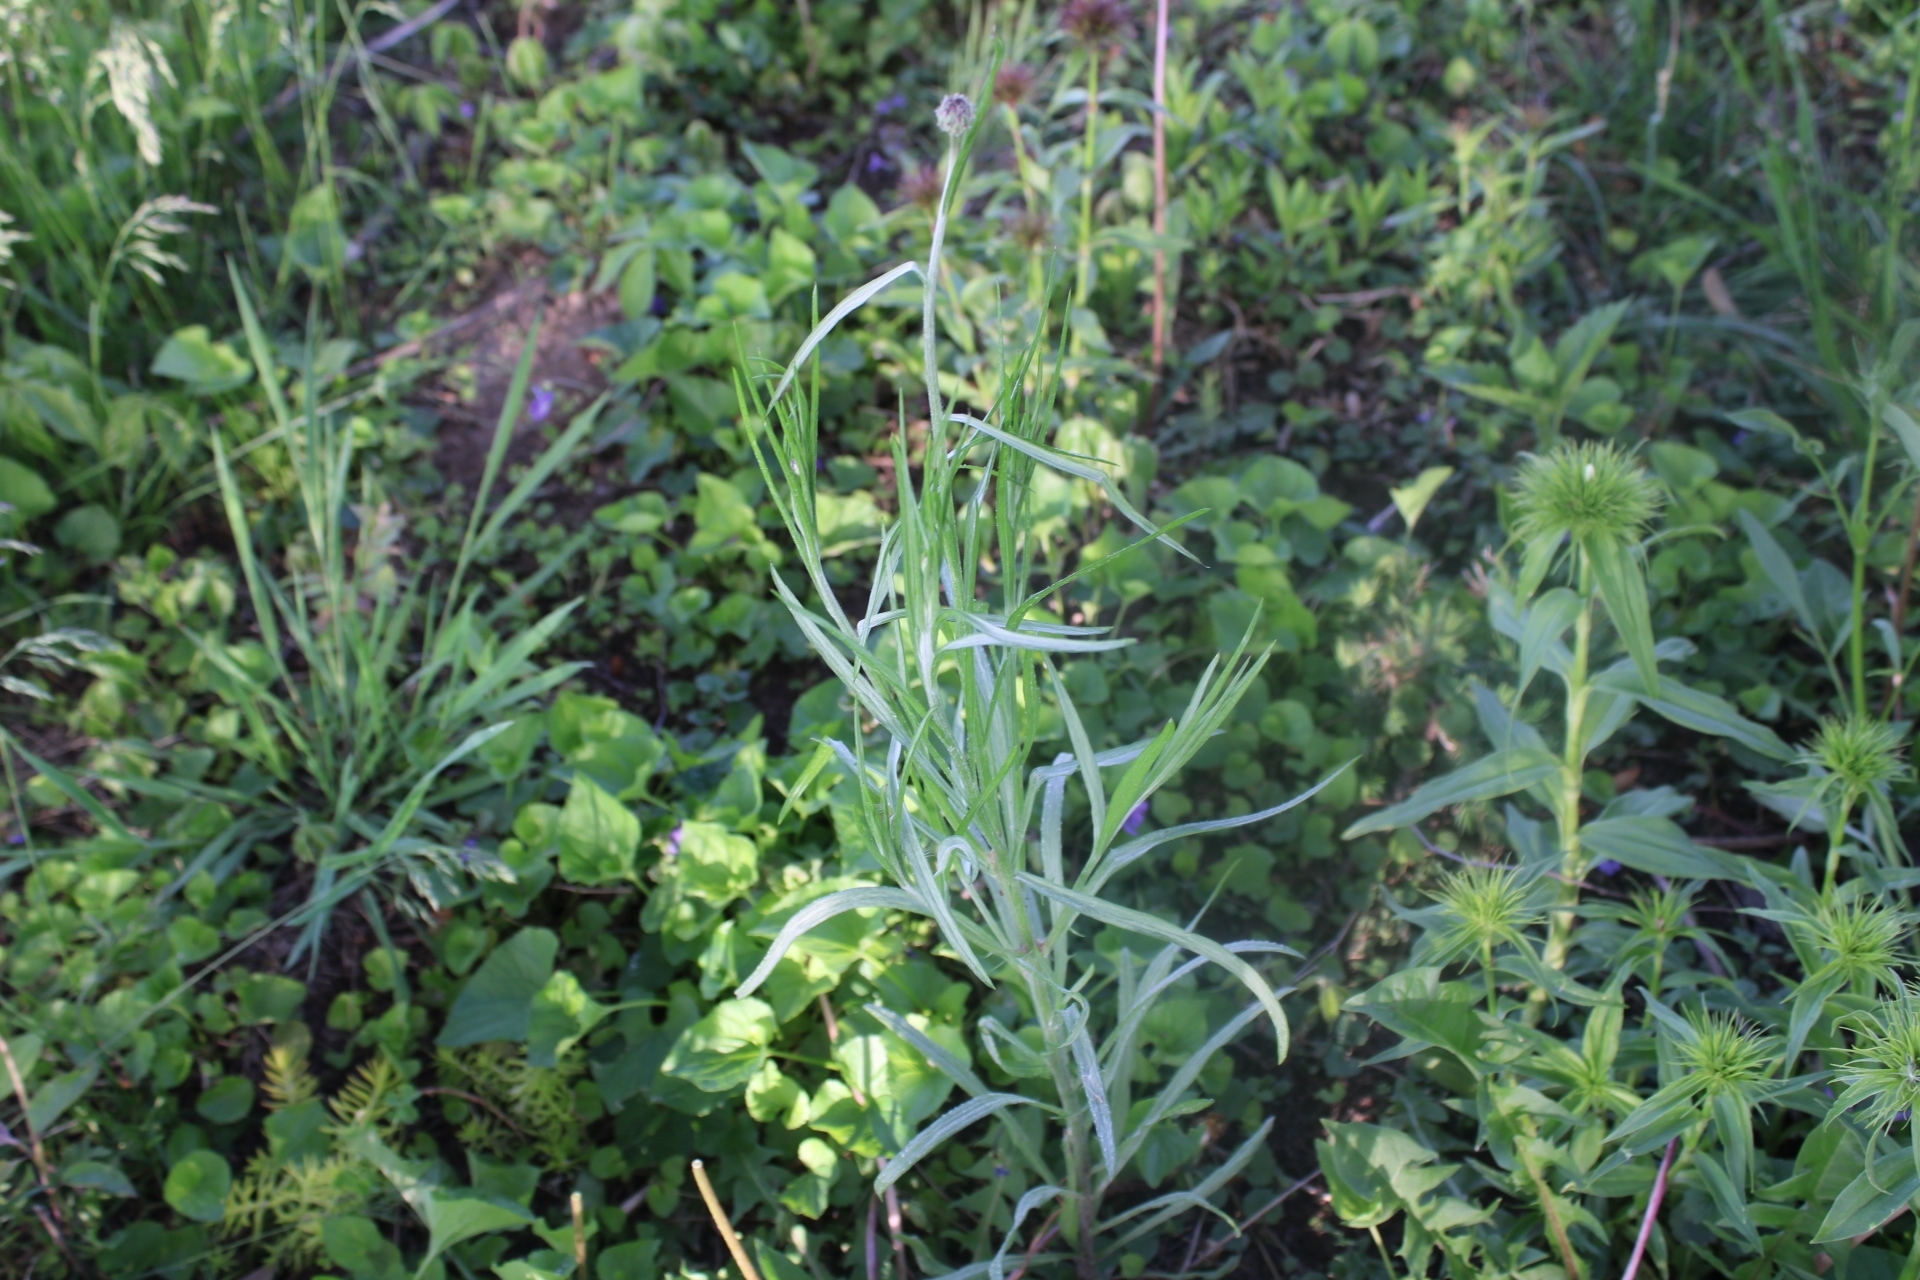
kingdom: Plantae
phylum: Tracheophyta
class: Magnoliopsida
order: Asterales
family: Asteraceae
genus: Centaurea
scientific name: Centaurea cyanus
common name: Cornflower
